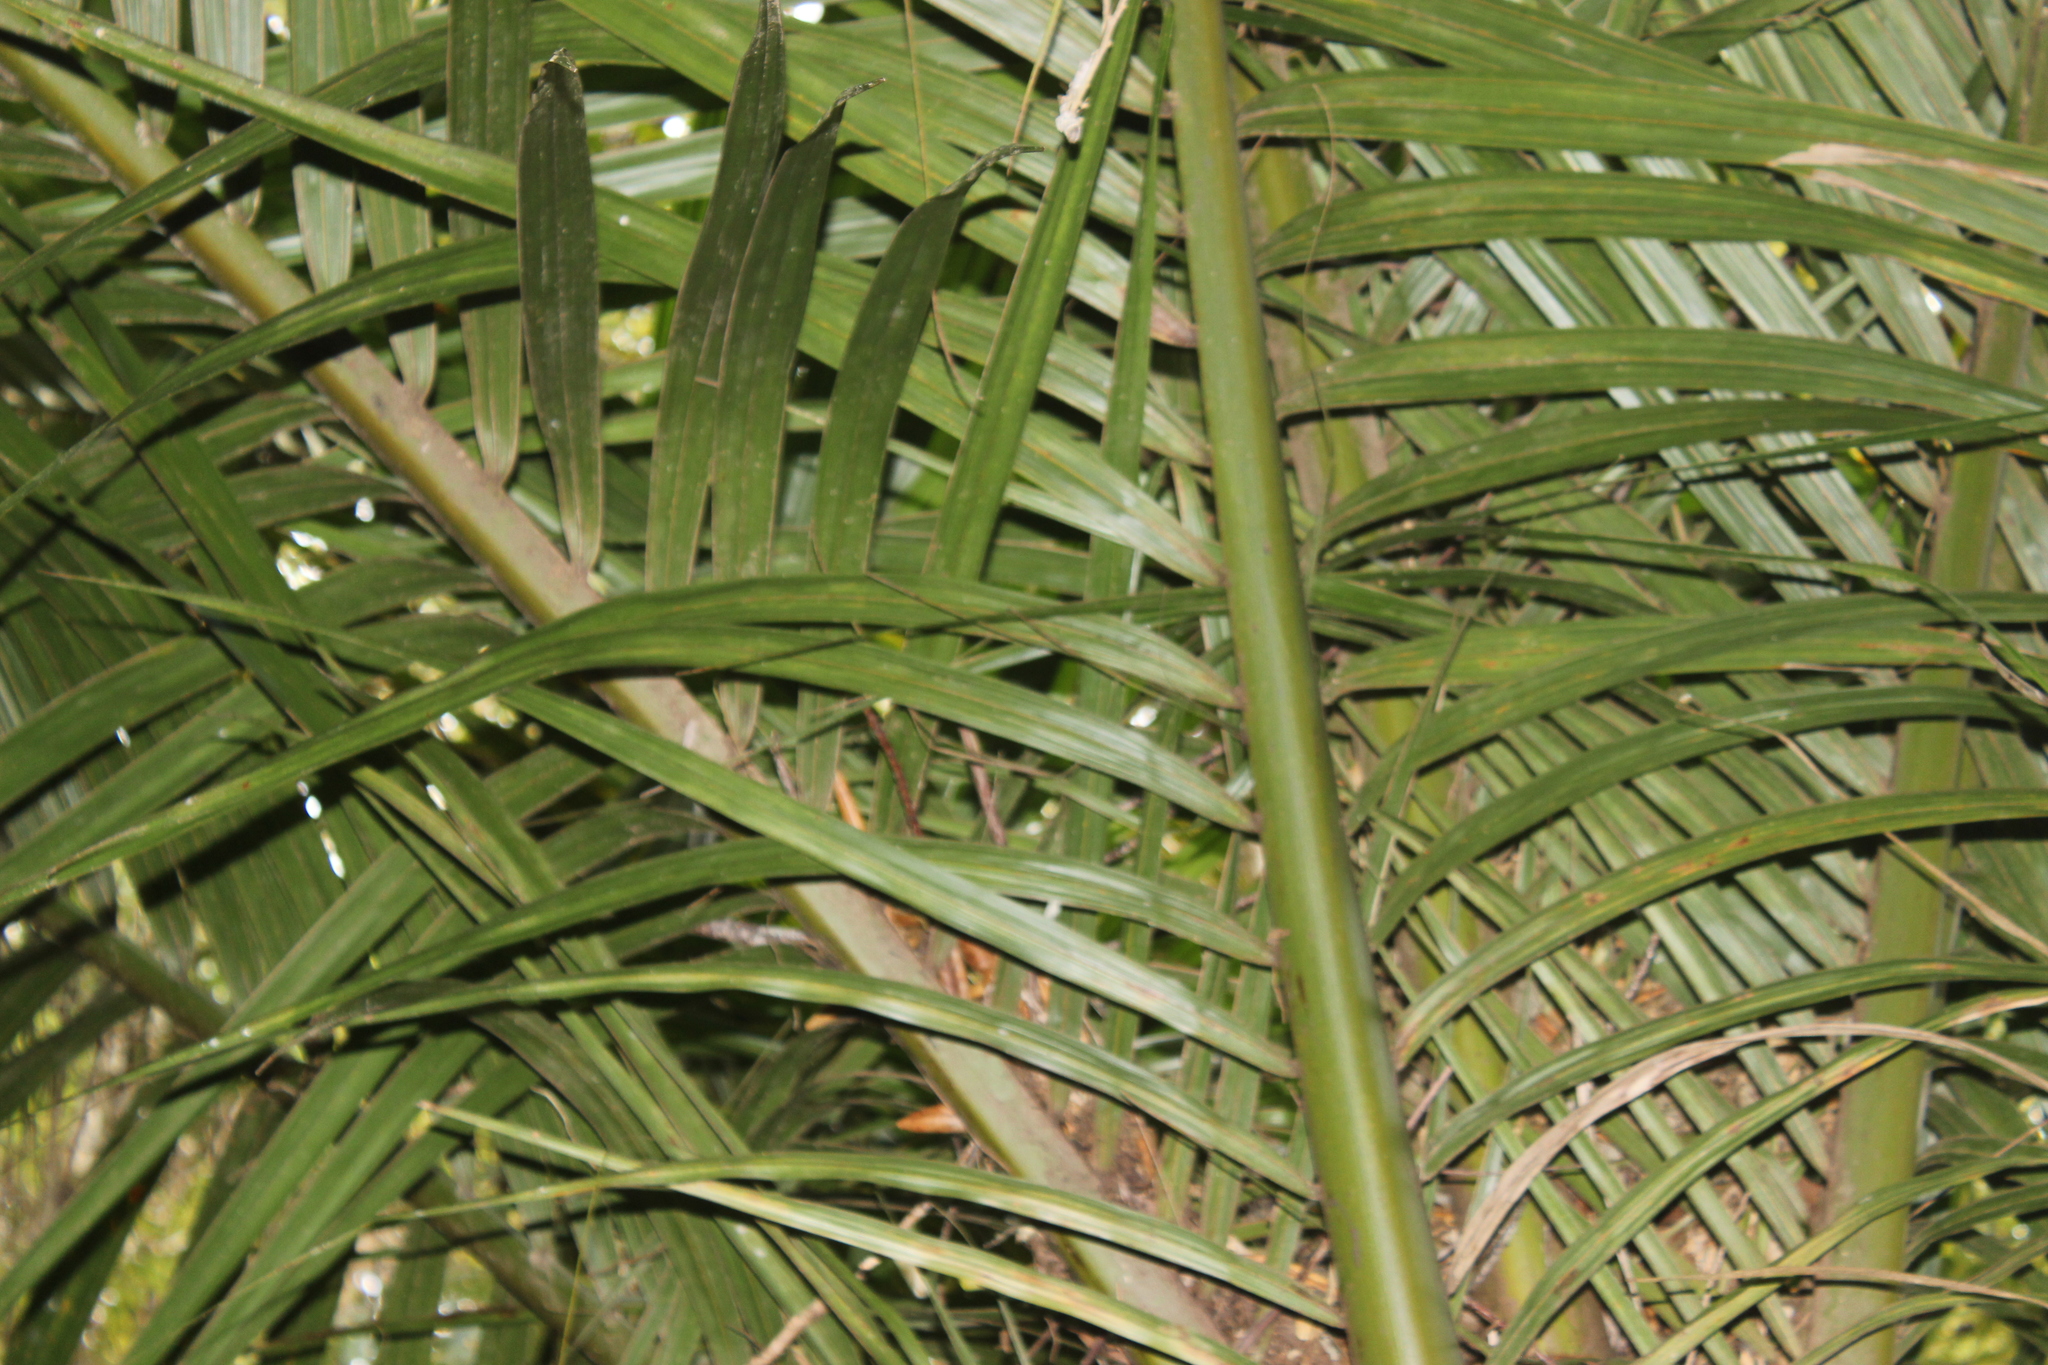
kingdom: Plantae
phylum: Tracheophyta
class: Liliopsida
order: Arecales
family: Arecaceae
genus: Rhopalostylis
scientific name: Rhopalostylis sapida
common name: Feather-duster palm
